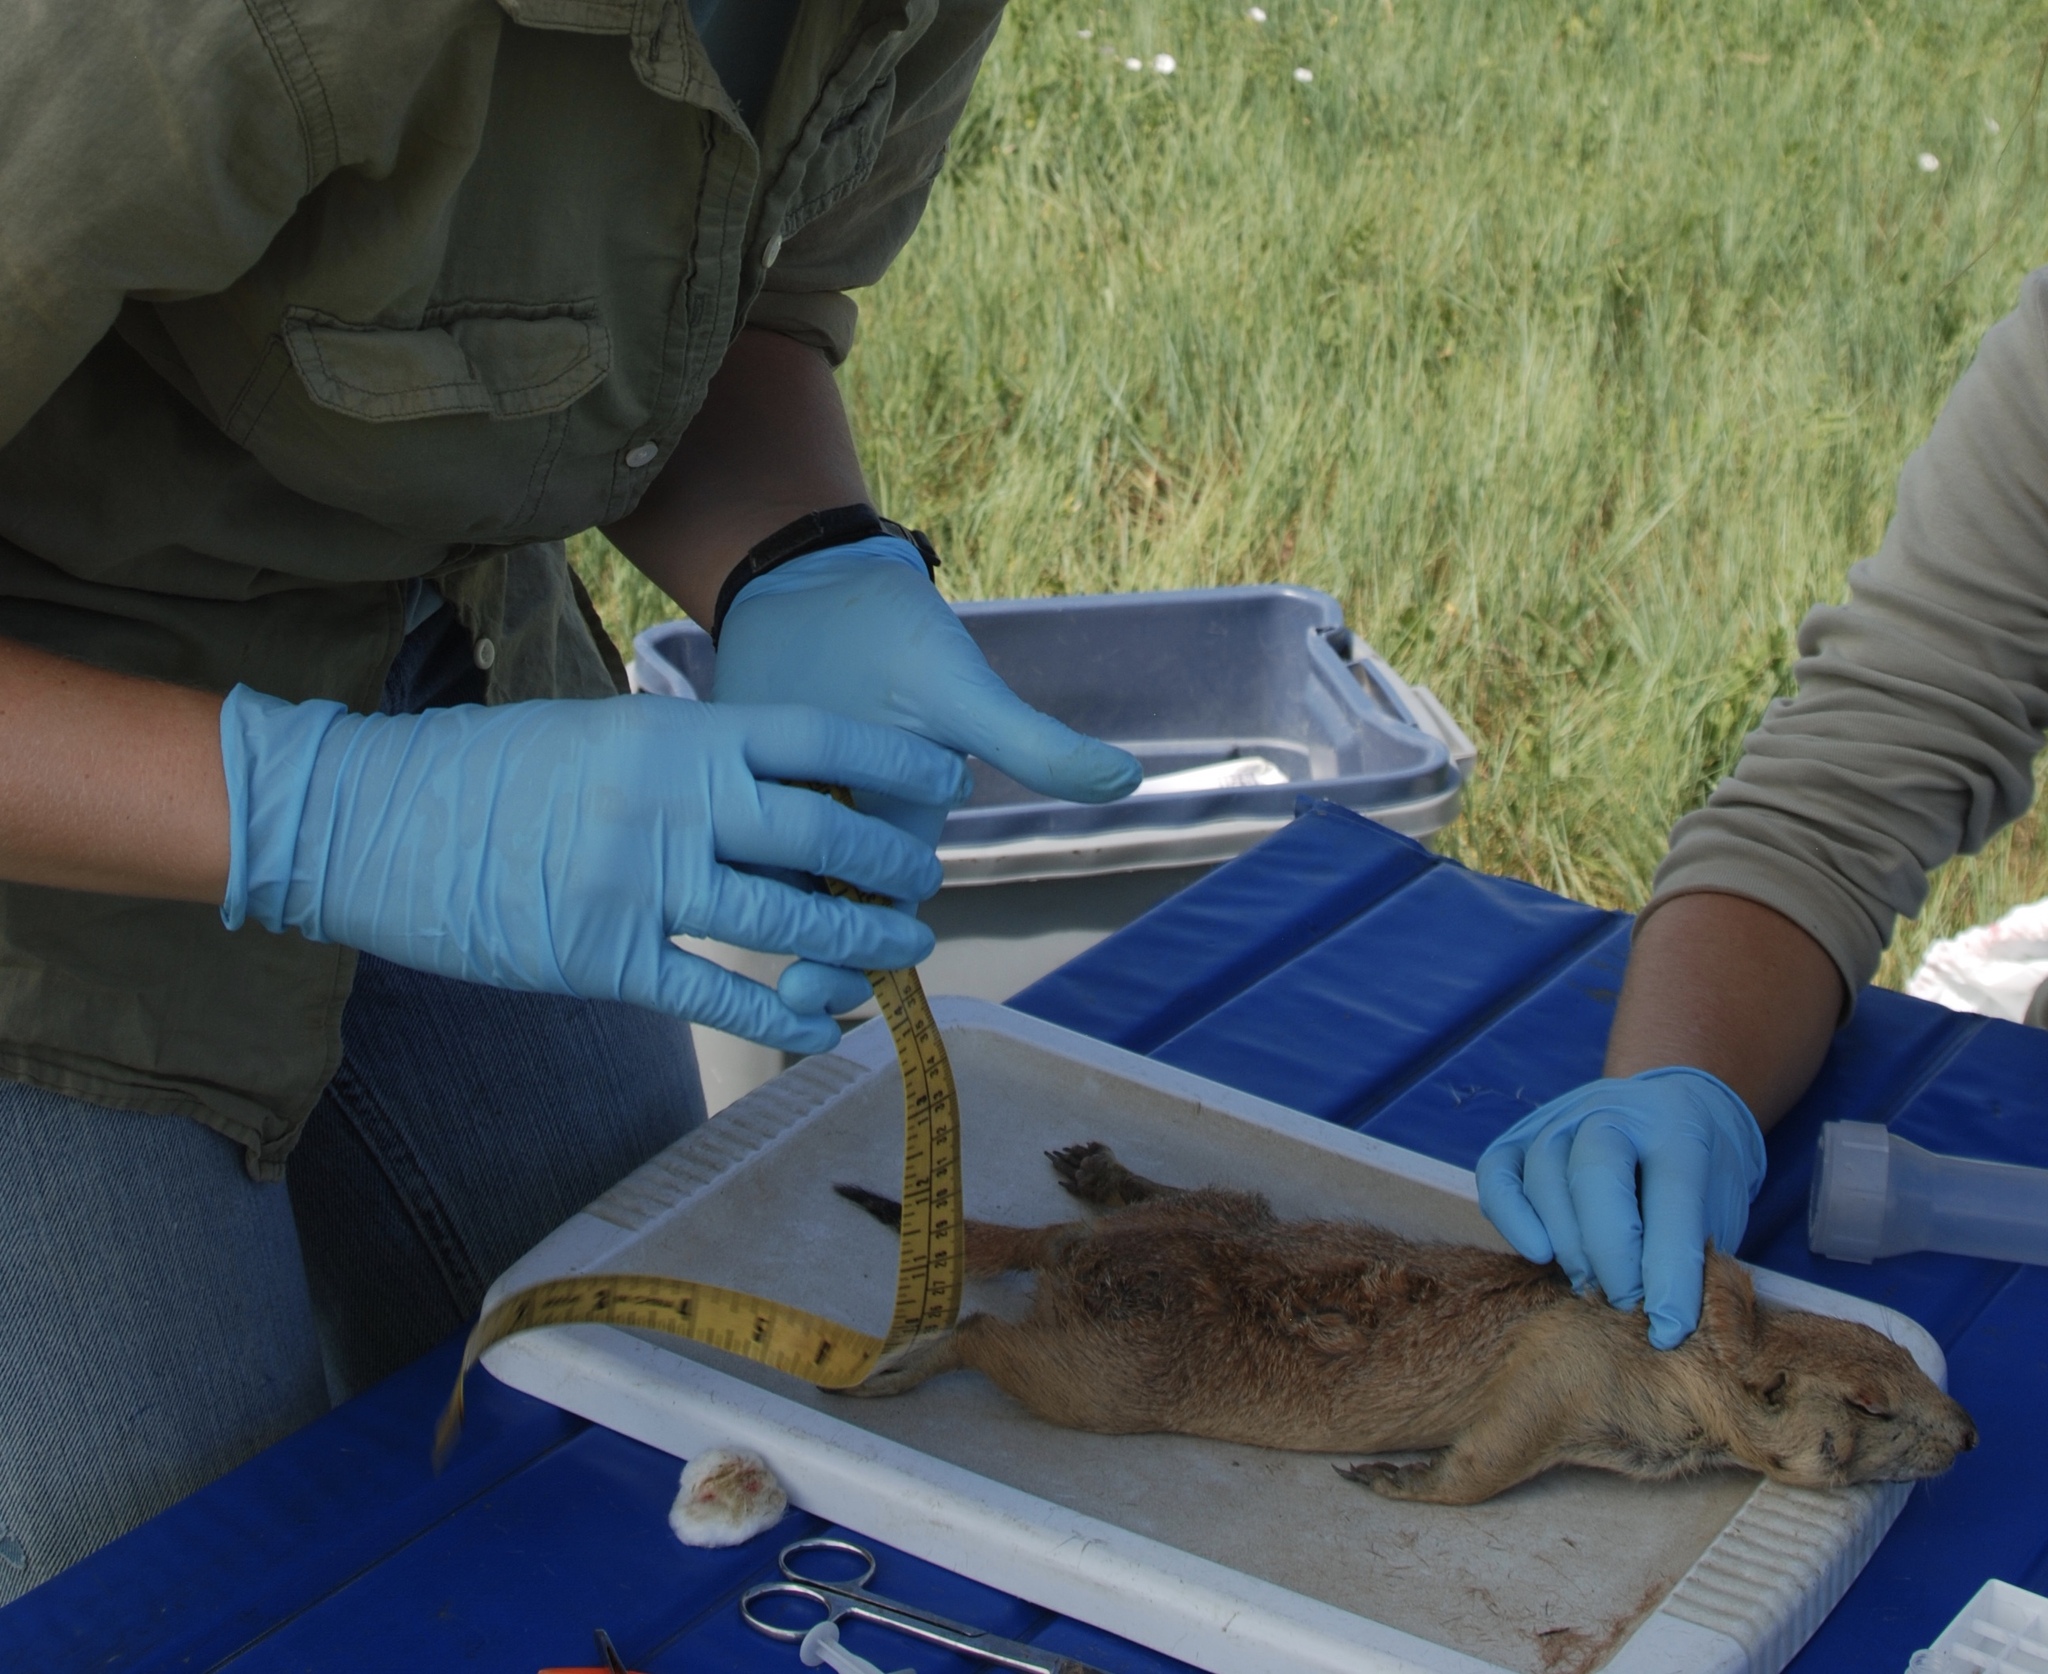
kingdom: Animalia
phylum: Chordata
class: Mammalia
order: Rodentia
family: Sciuridae
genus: Cynomys
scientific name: Cynomys ludovicianus
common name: Black-tailed prairie dog
